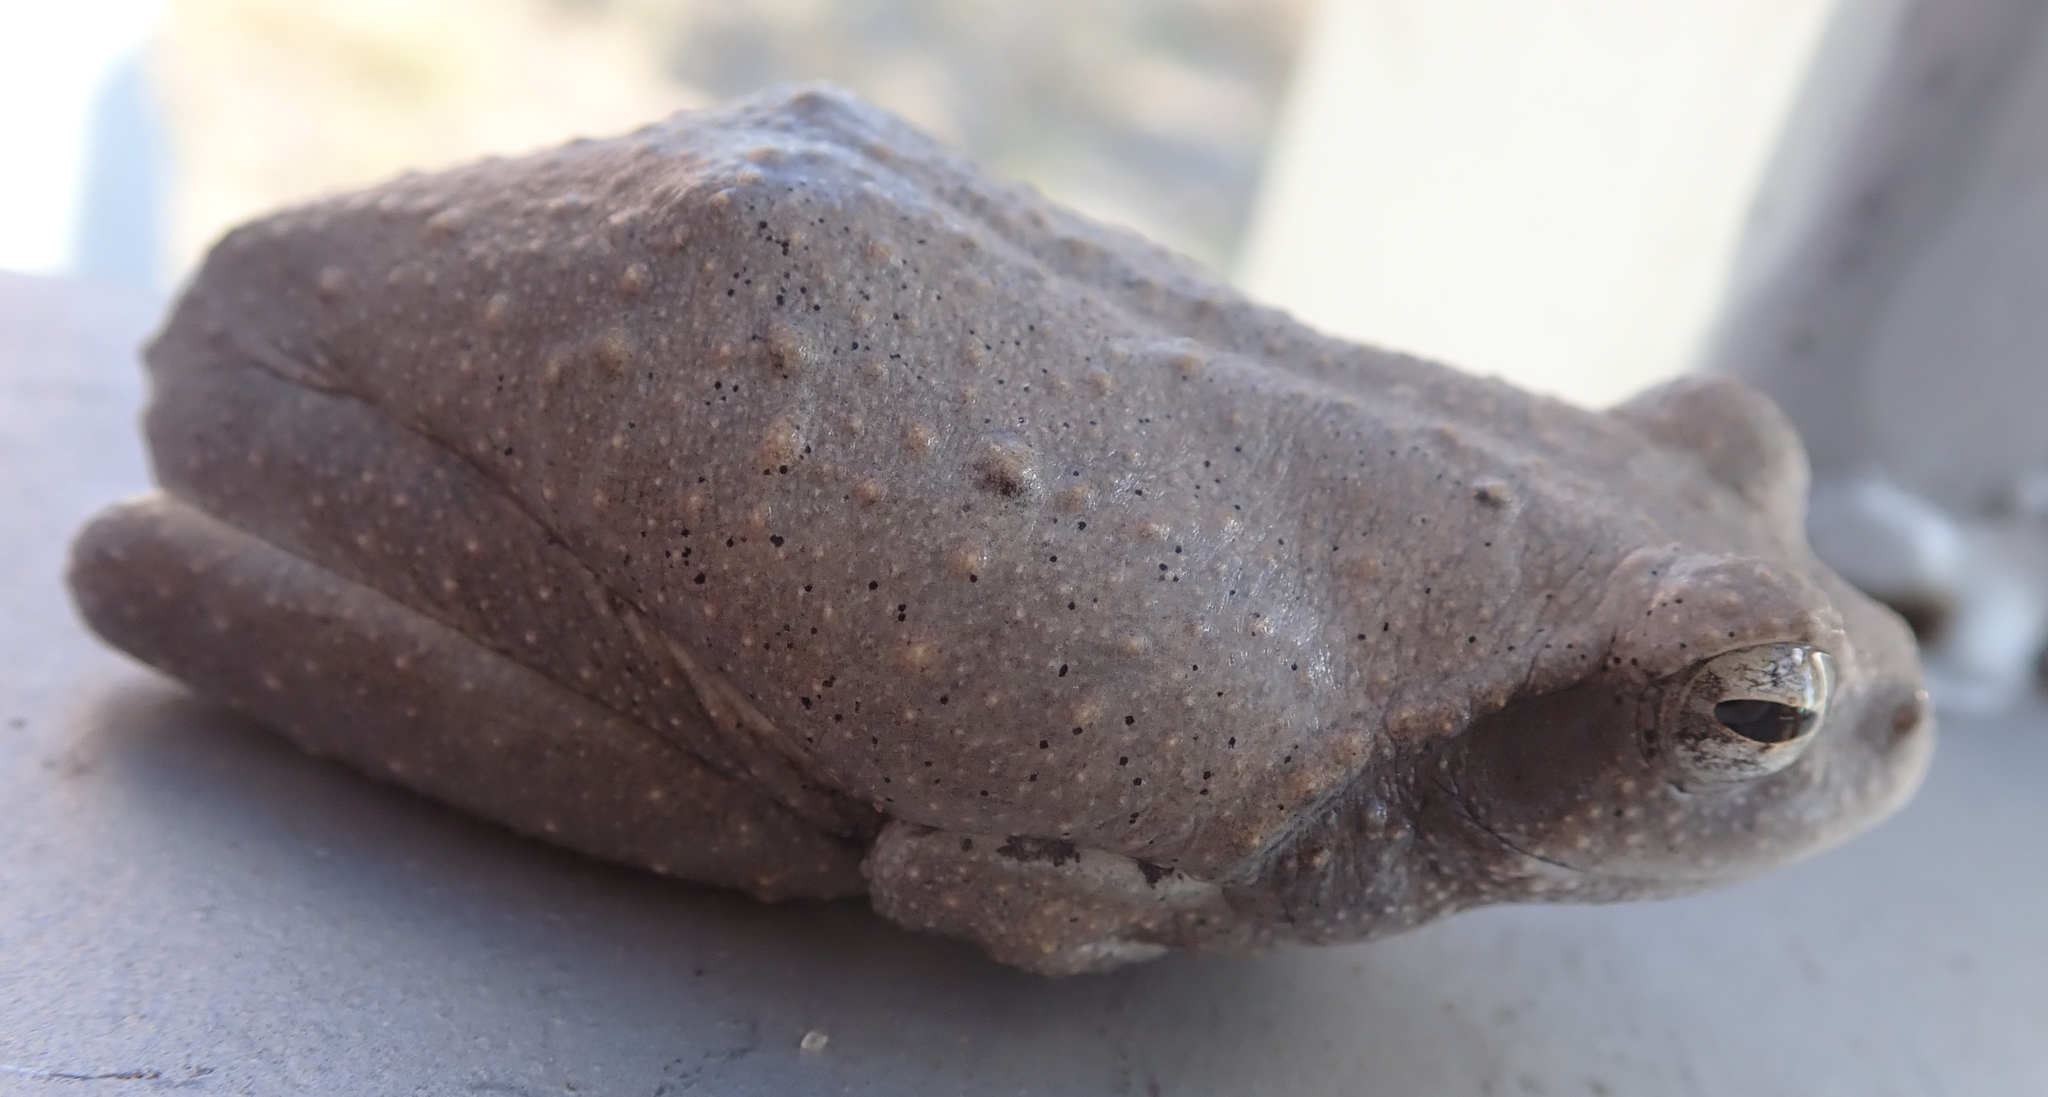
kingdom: Animalia
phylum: Chordata
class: Amphibia
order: Anura
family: Rhacophoridae
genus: Chiromantis
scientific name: Chiromantis xerampelina
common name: African gray treefrog
